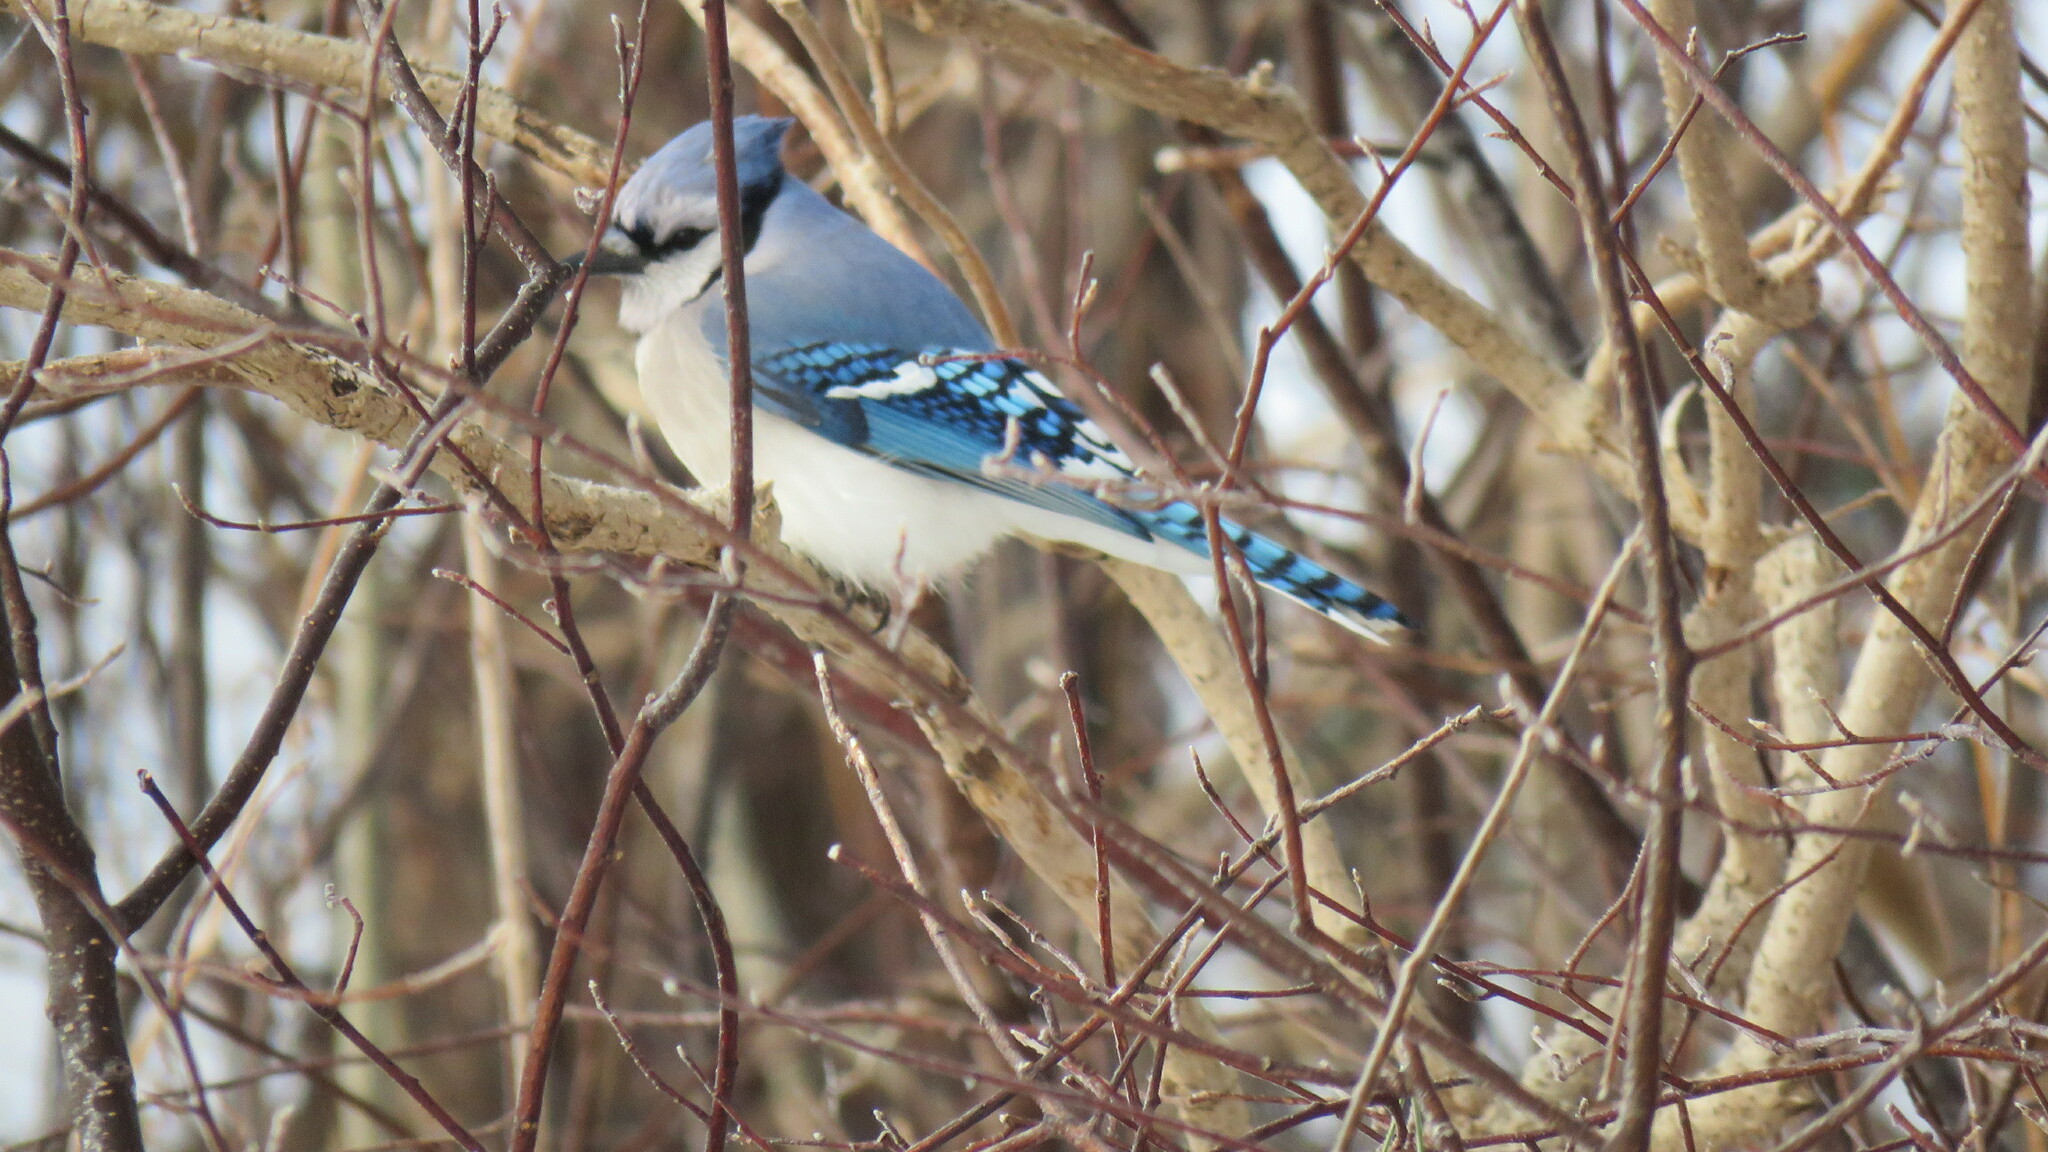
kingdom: Animalia
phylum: Chordata
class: Aves
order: Passeriformes
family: Corvidae
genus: Cyanocitta
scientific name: Cyanocitta cristata
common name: Blue jay
